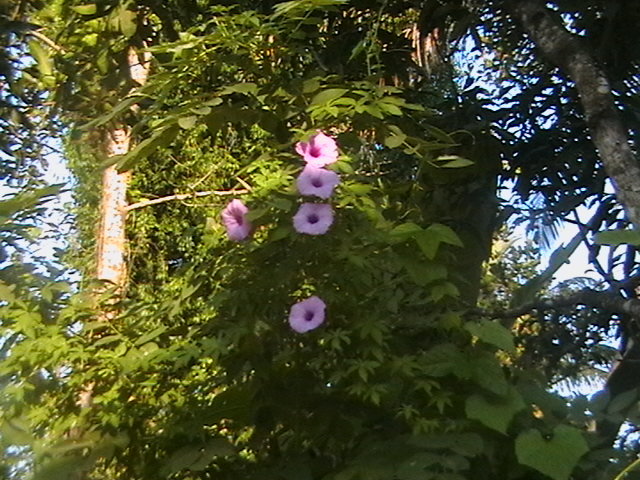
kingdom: Plantae
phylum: Tracheophyta
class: Magnoliopsida
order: Solanales
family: Convolvulaceae
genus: Ipomoea
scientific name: Ipomoea cairica
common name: Mile a minute vine
